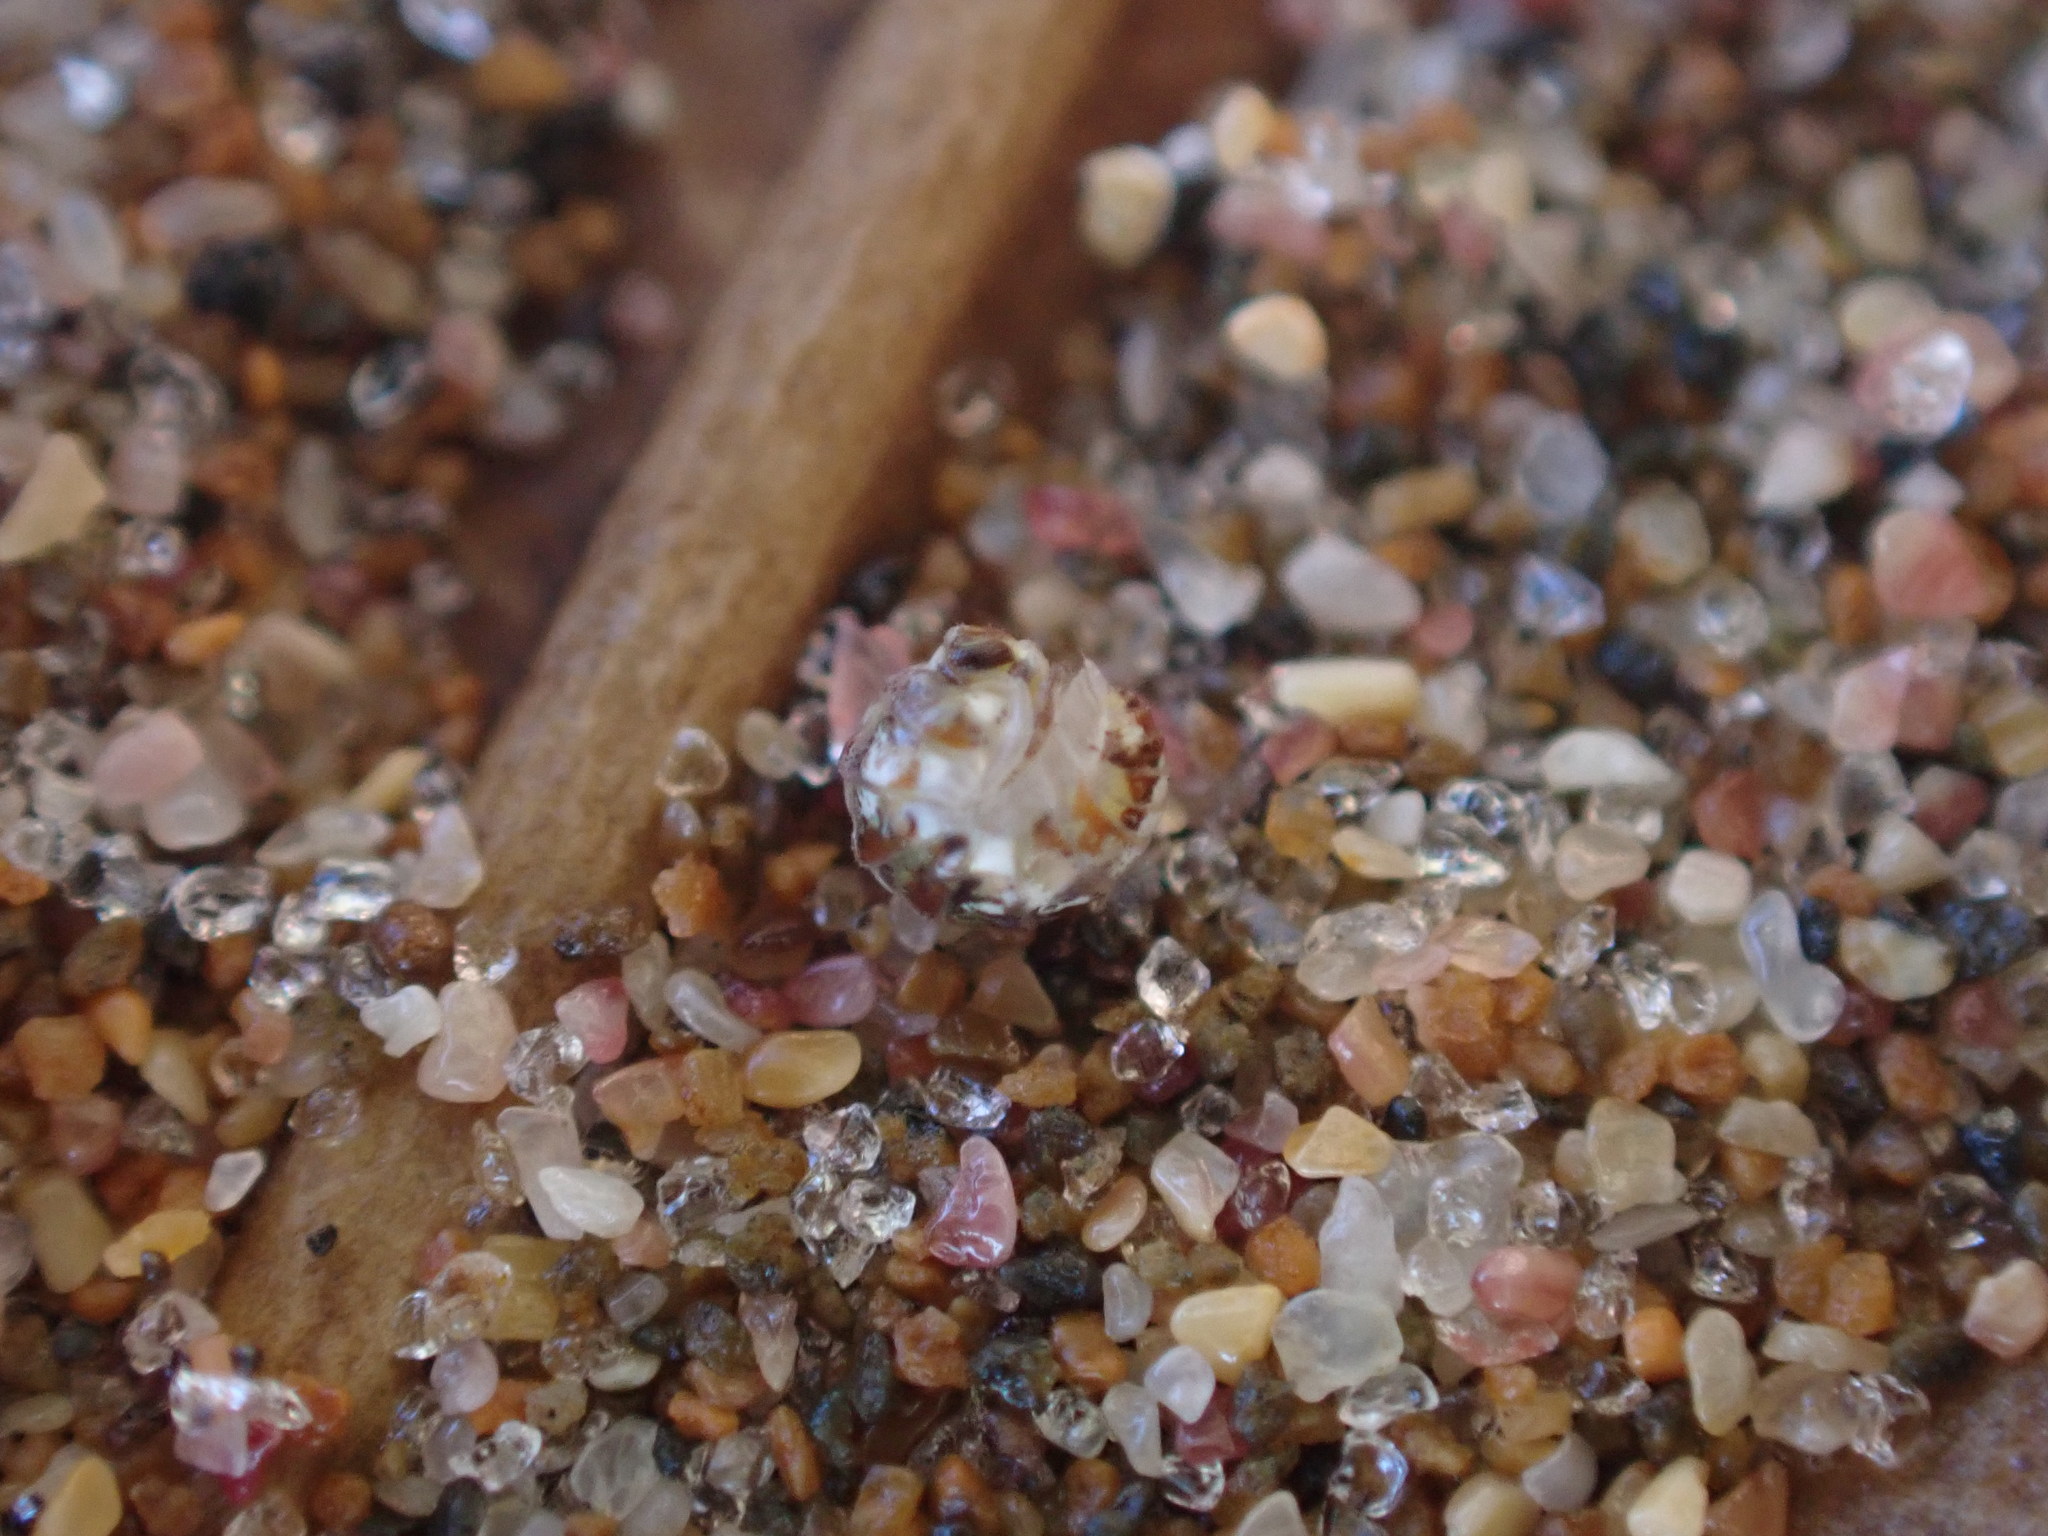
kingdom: Animalia
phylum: Arthropoda
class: Malacostraca
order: Isopoda
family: Scyphacidae
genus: Actaecia
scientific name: Actaecia euchroa
